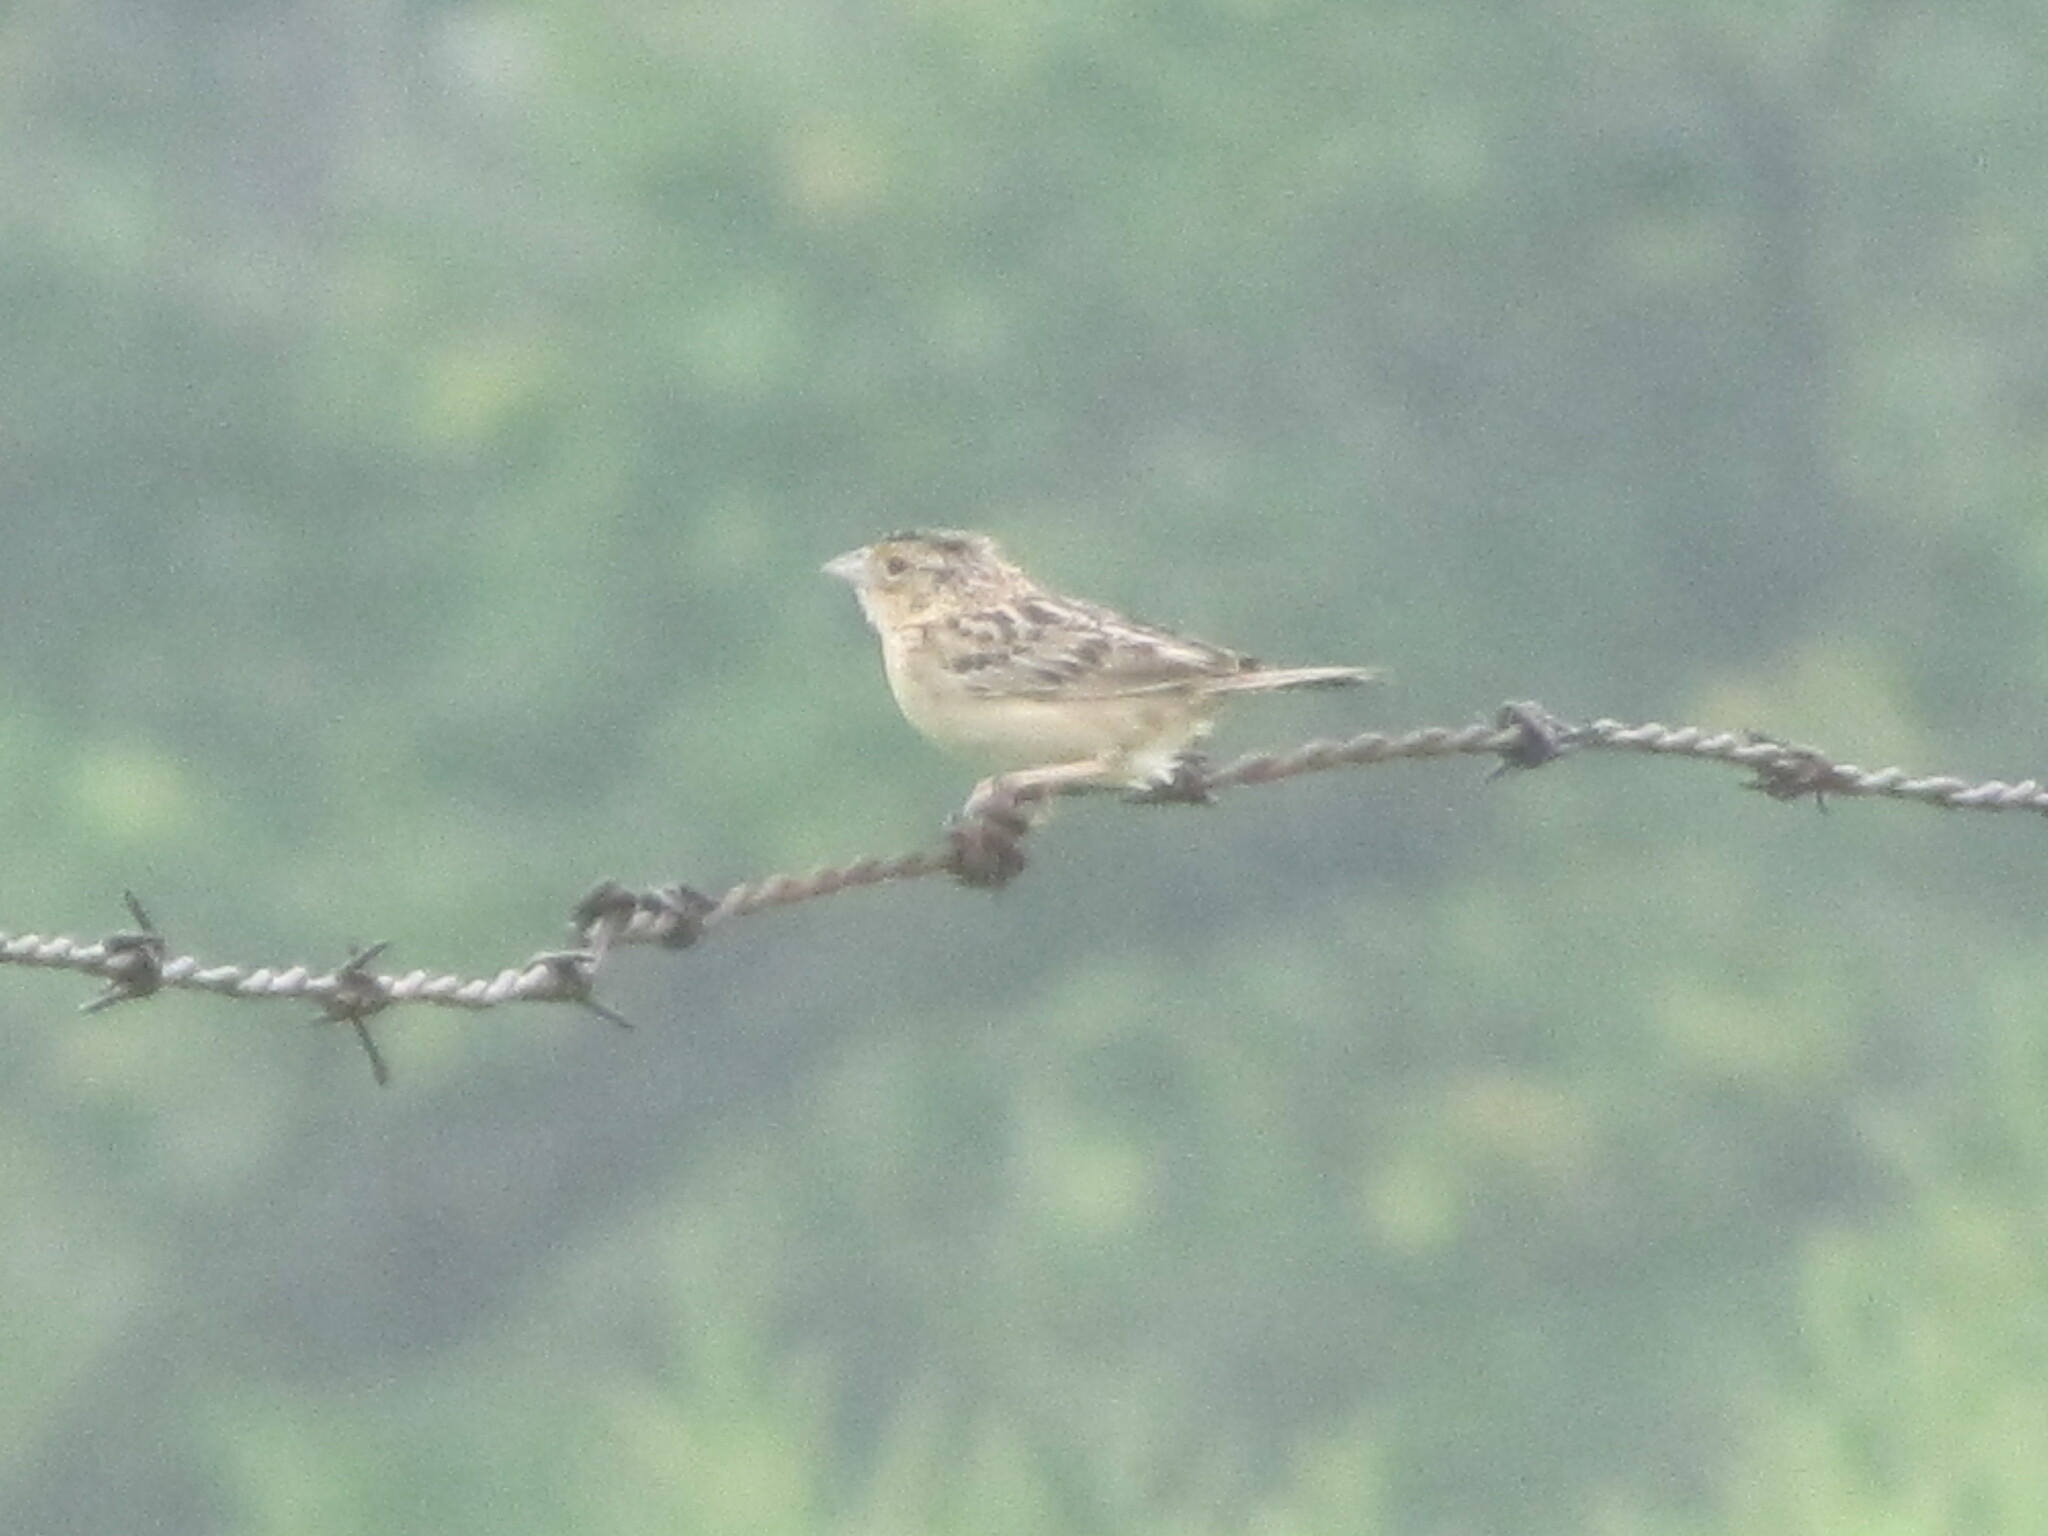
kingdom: Animalia
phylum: Chordata
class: Aves
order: Passeriformes
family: Passerellidae
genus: Ammodramus
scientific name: Ammodramus savannarum
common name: Grasshopper sparrow
